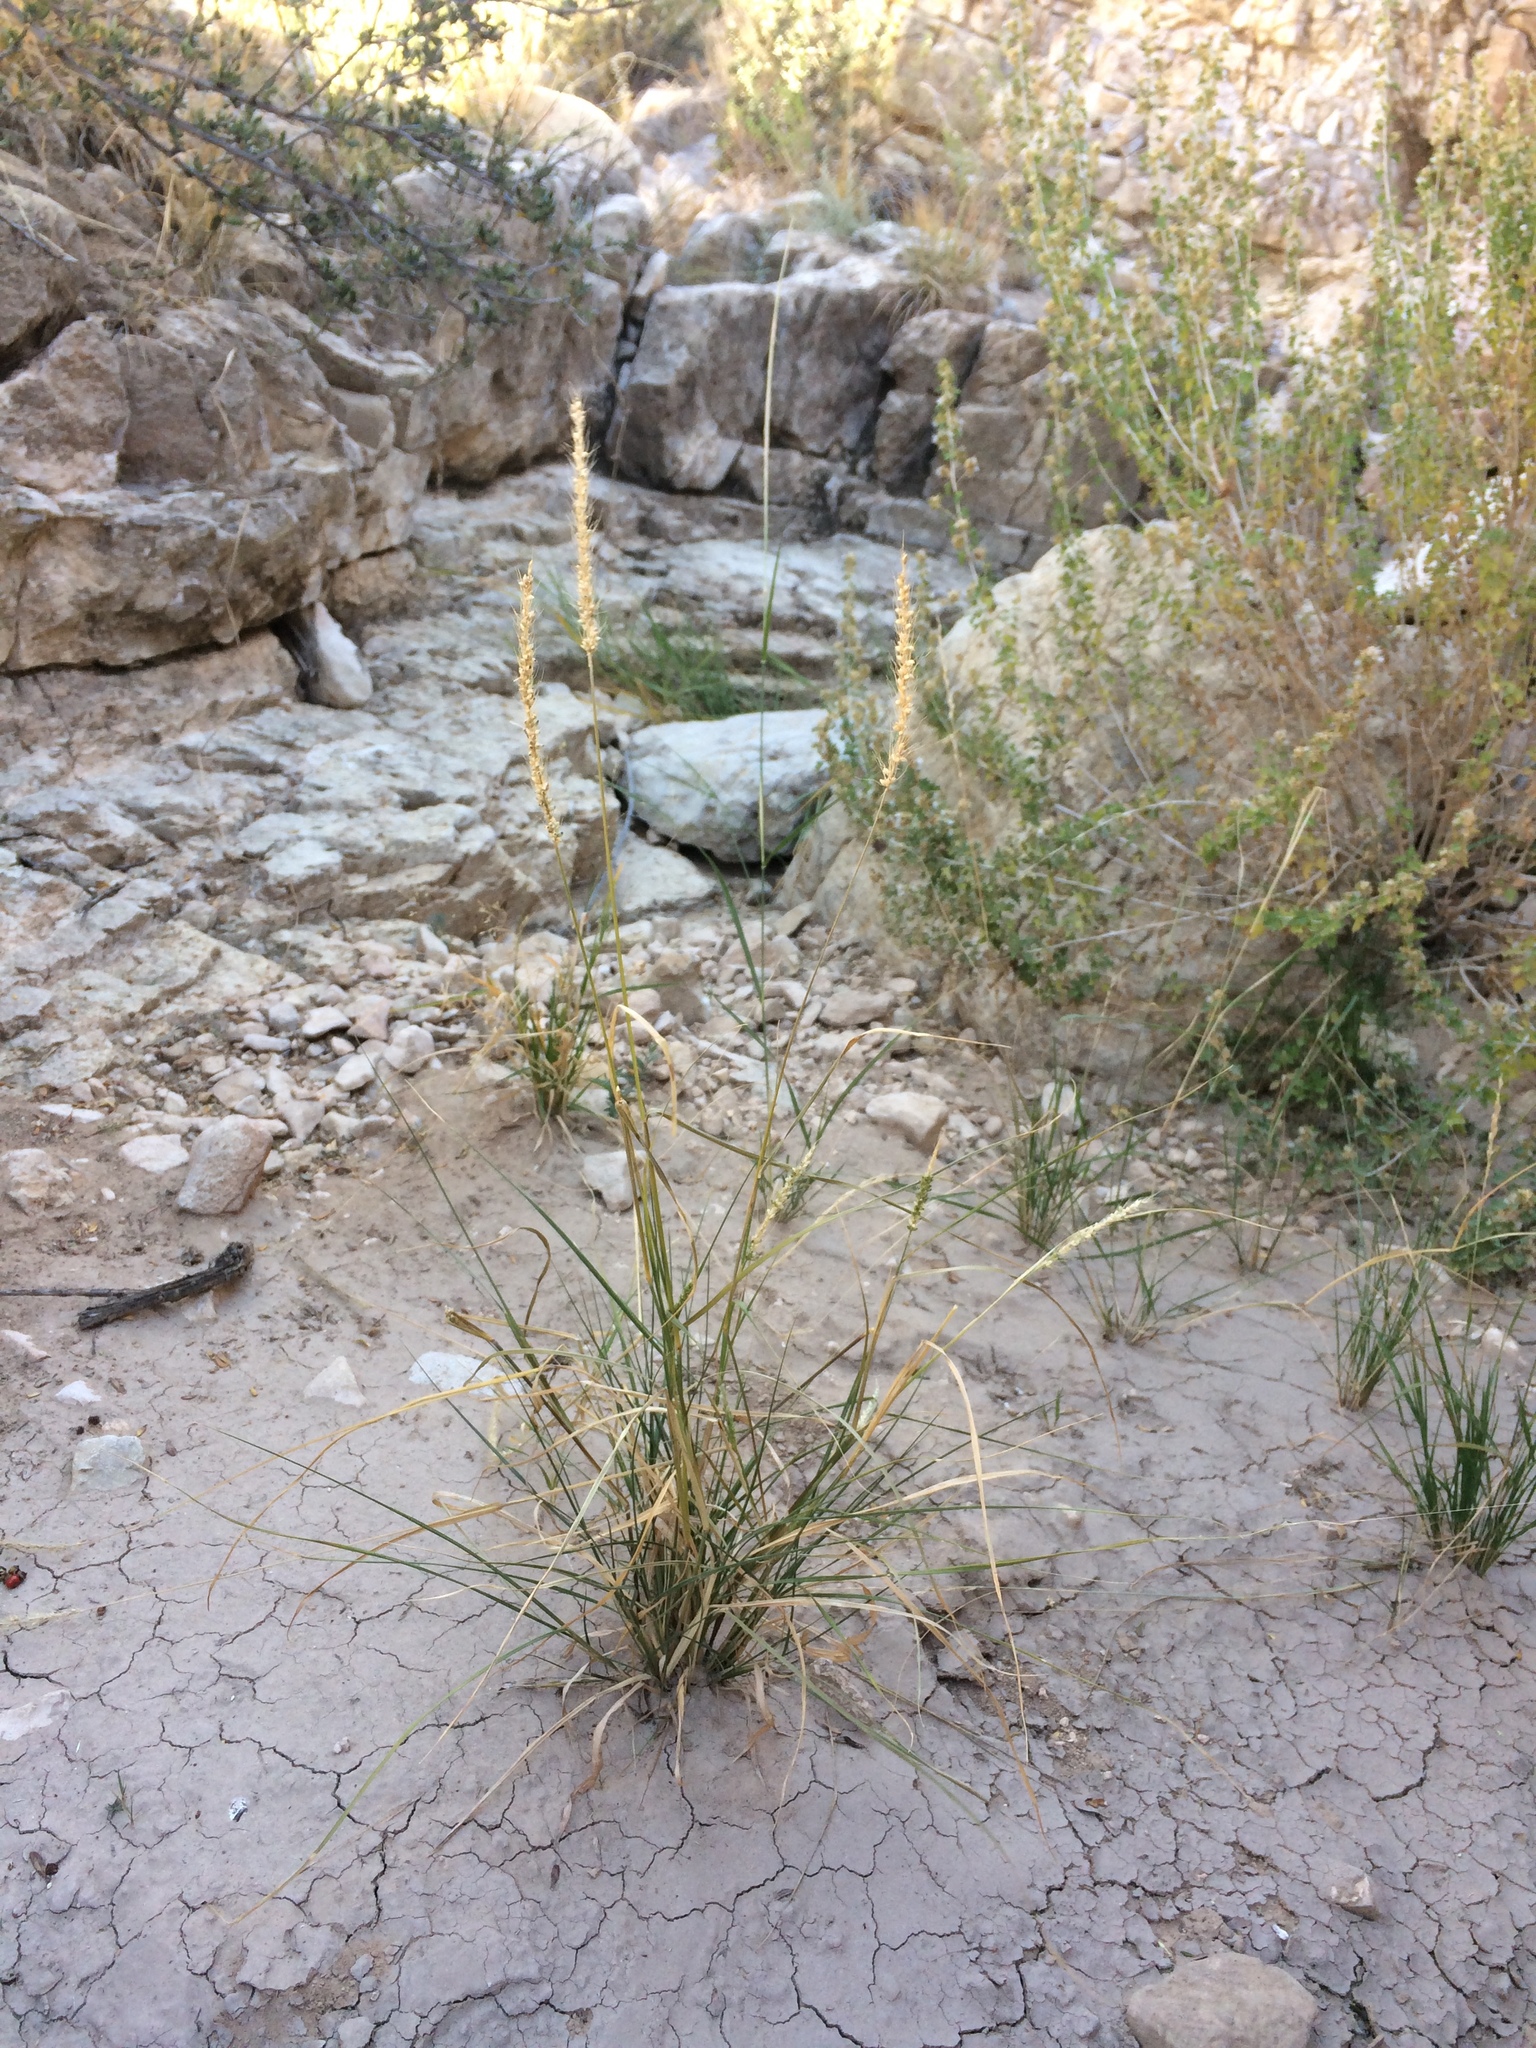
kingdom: Plantae
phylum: Tracheophyta
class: Liliopsida
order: Poales
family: Poaceae
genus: Setaria
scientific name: Setaria leucopila
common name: Plains bristle grass
